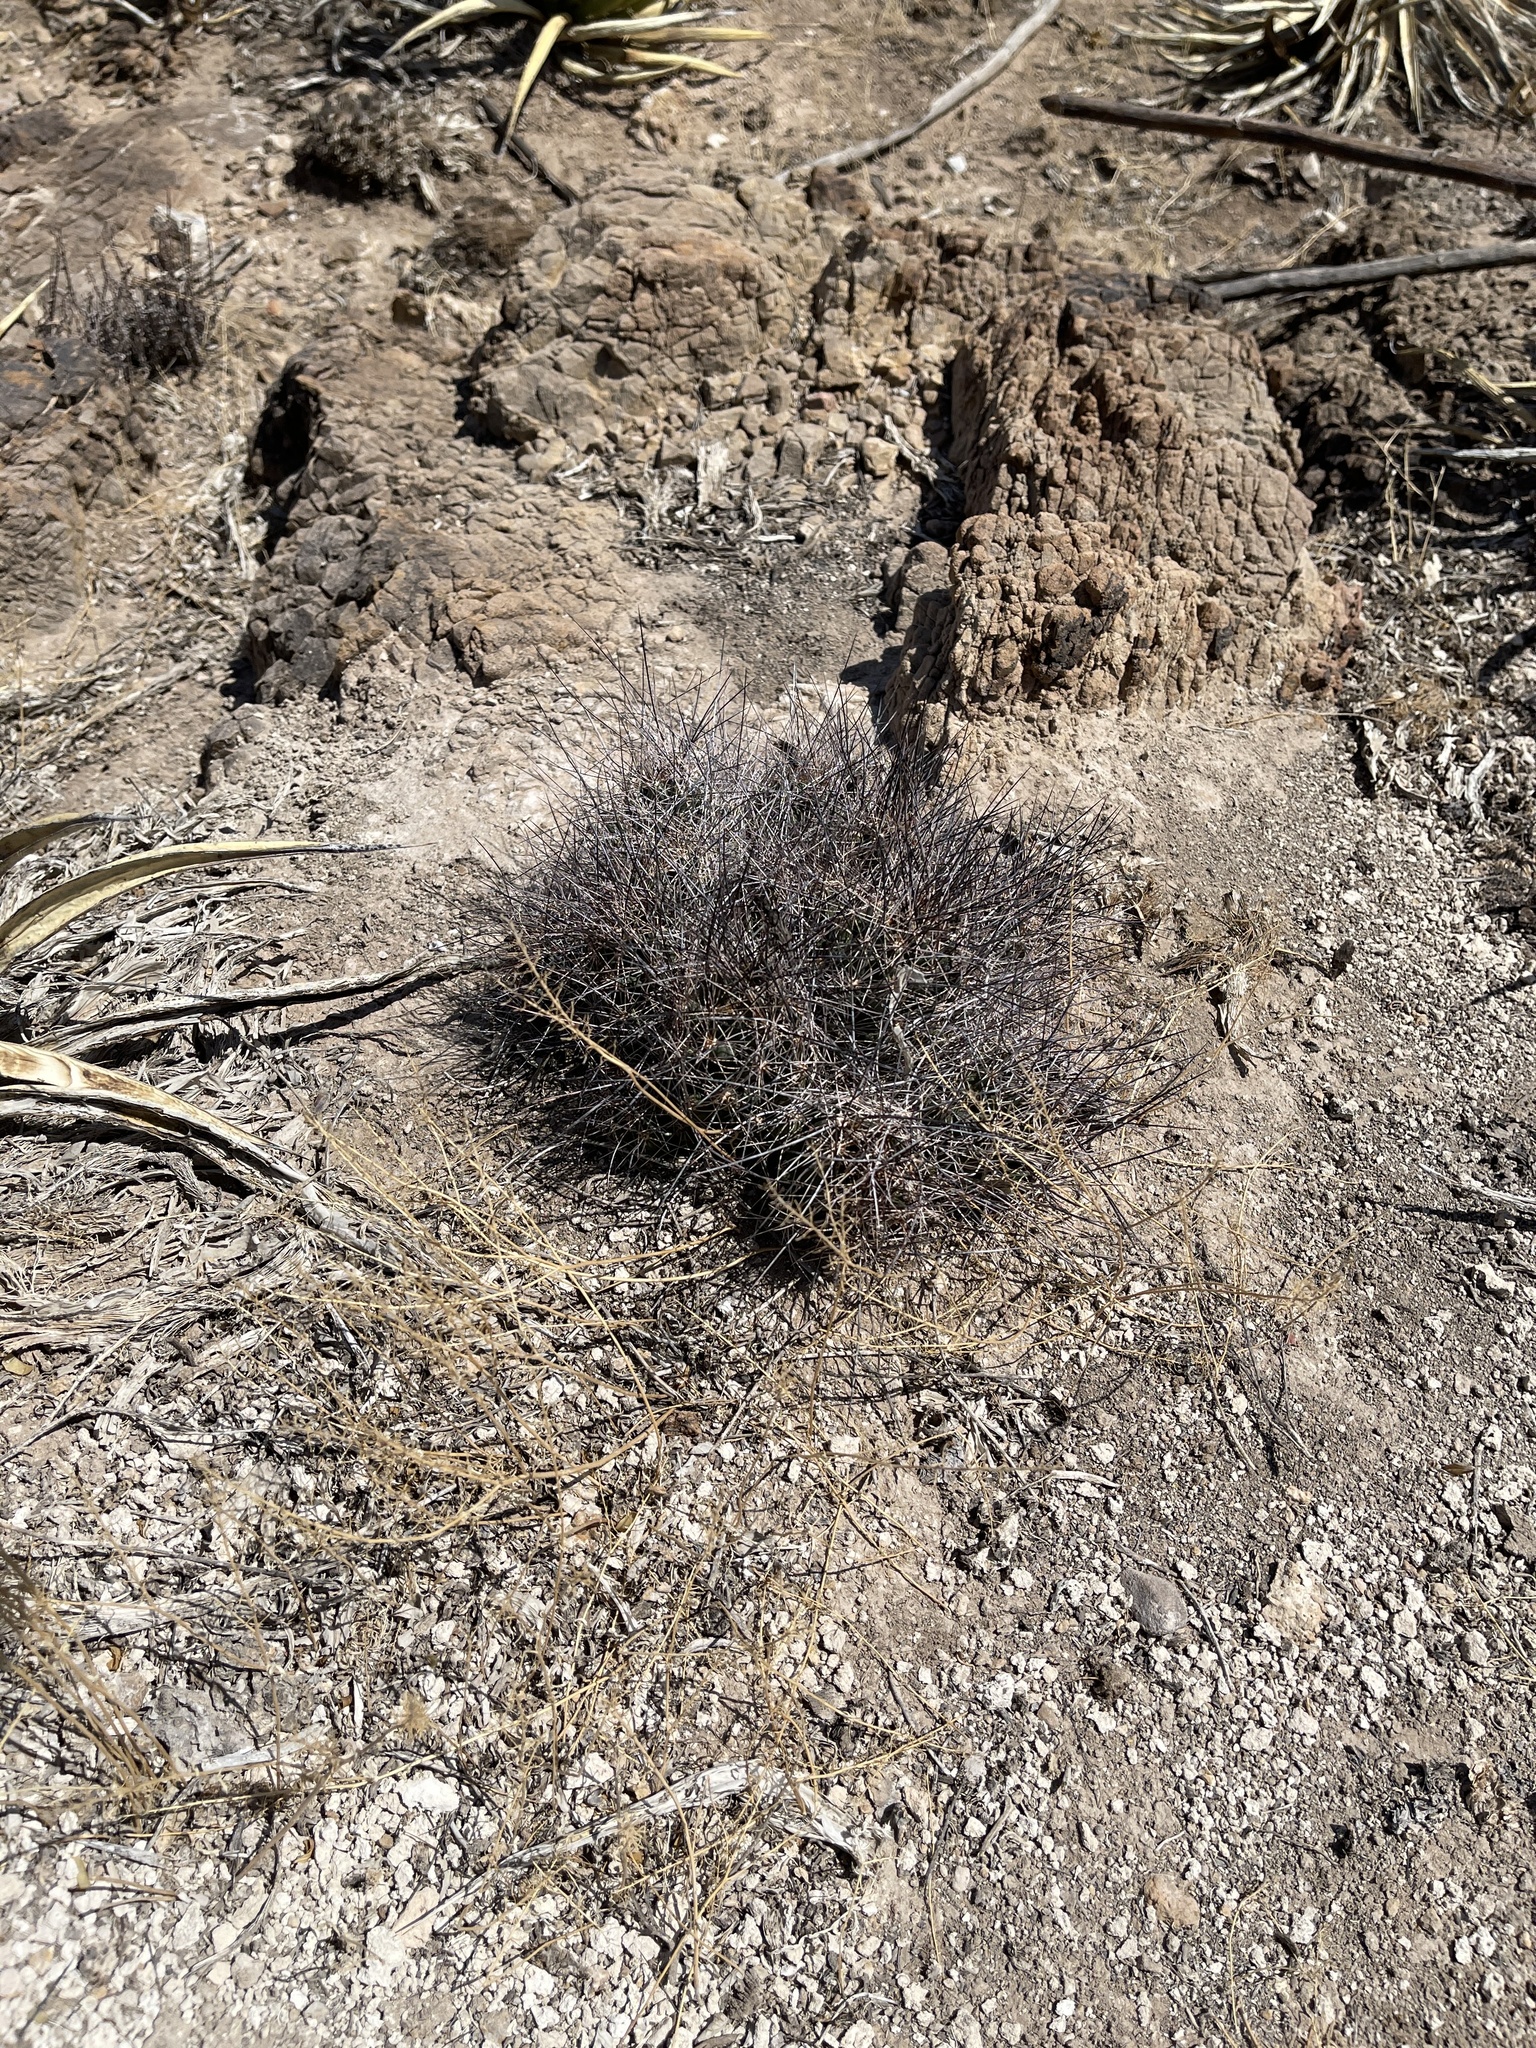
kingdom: Plantae
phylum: Tracheophyta
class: Magnoliopsida
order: Caryophyllales
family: Cactaceae
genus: Coryphantha
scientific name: Coryphantha macromeris
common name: Nipple beehive cactus
